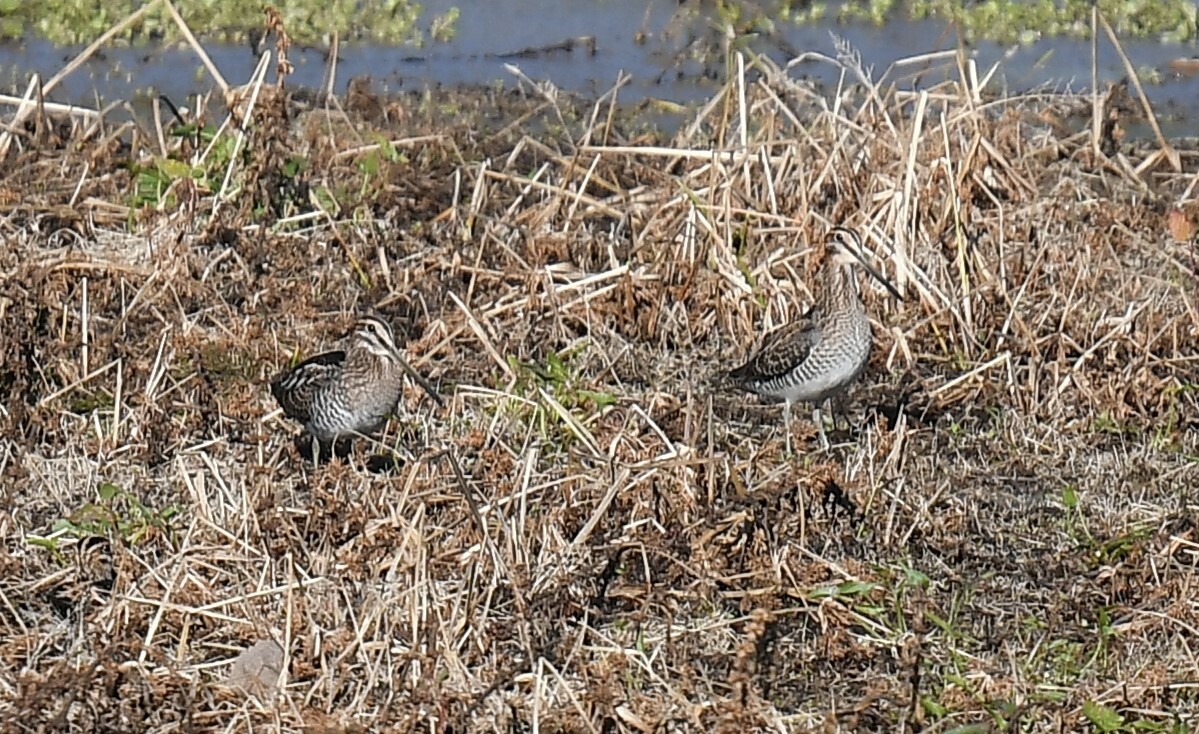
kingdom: Animalia
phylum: Chordata
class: Aves
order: Charadriiformes
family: Scolopacidae
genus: Gallinago
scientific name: Gallinago delicata
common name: Wilson's snipe
